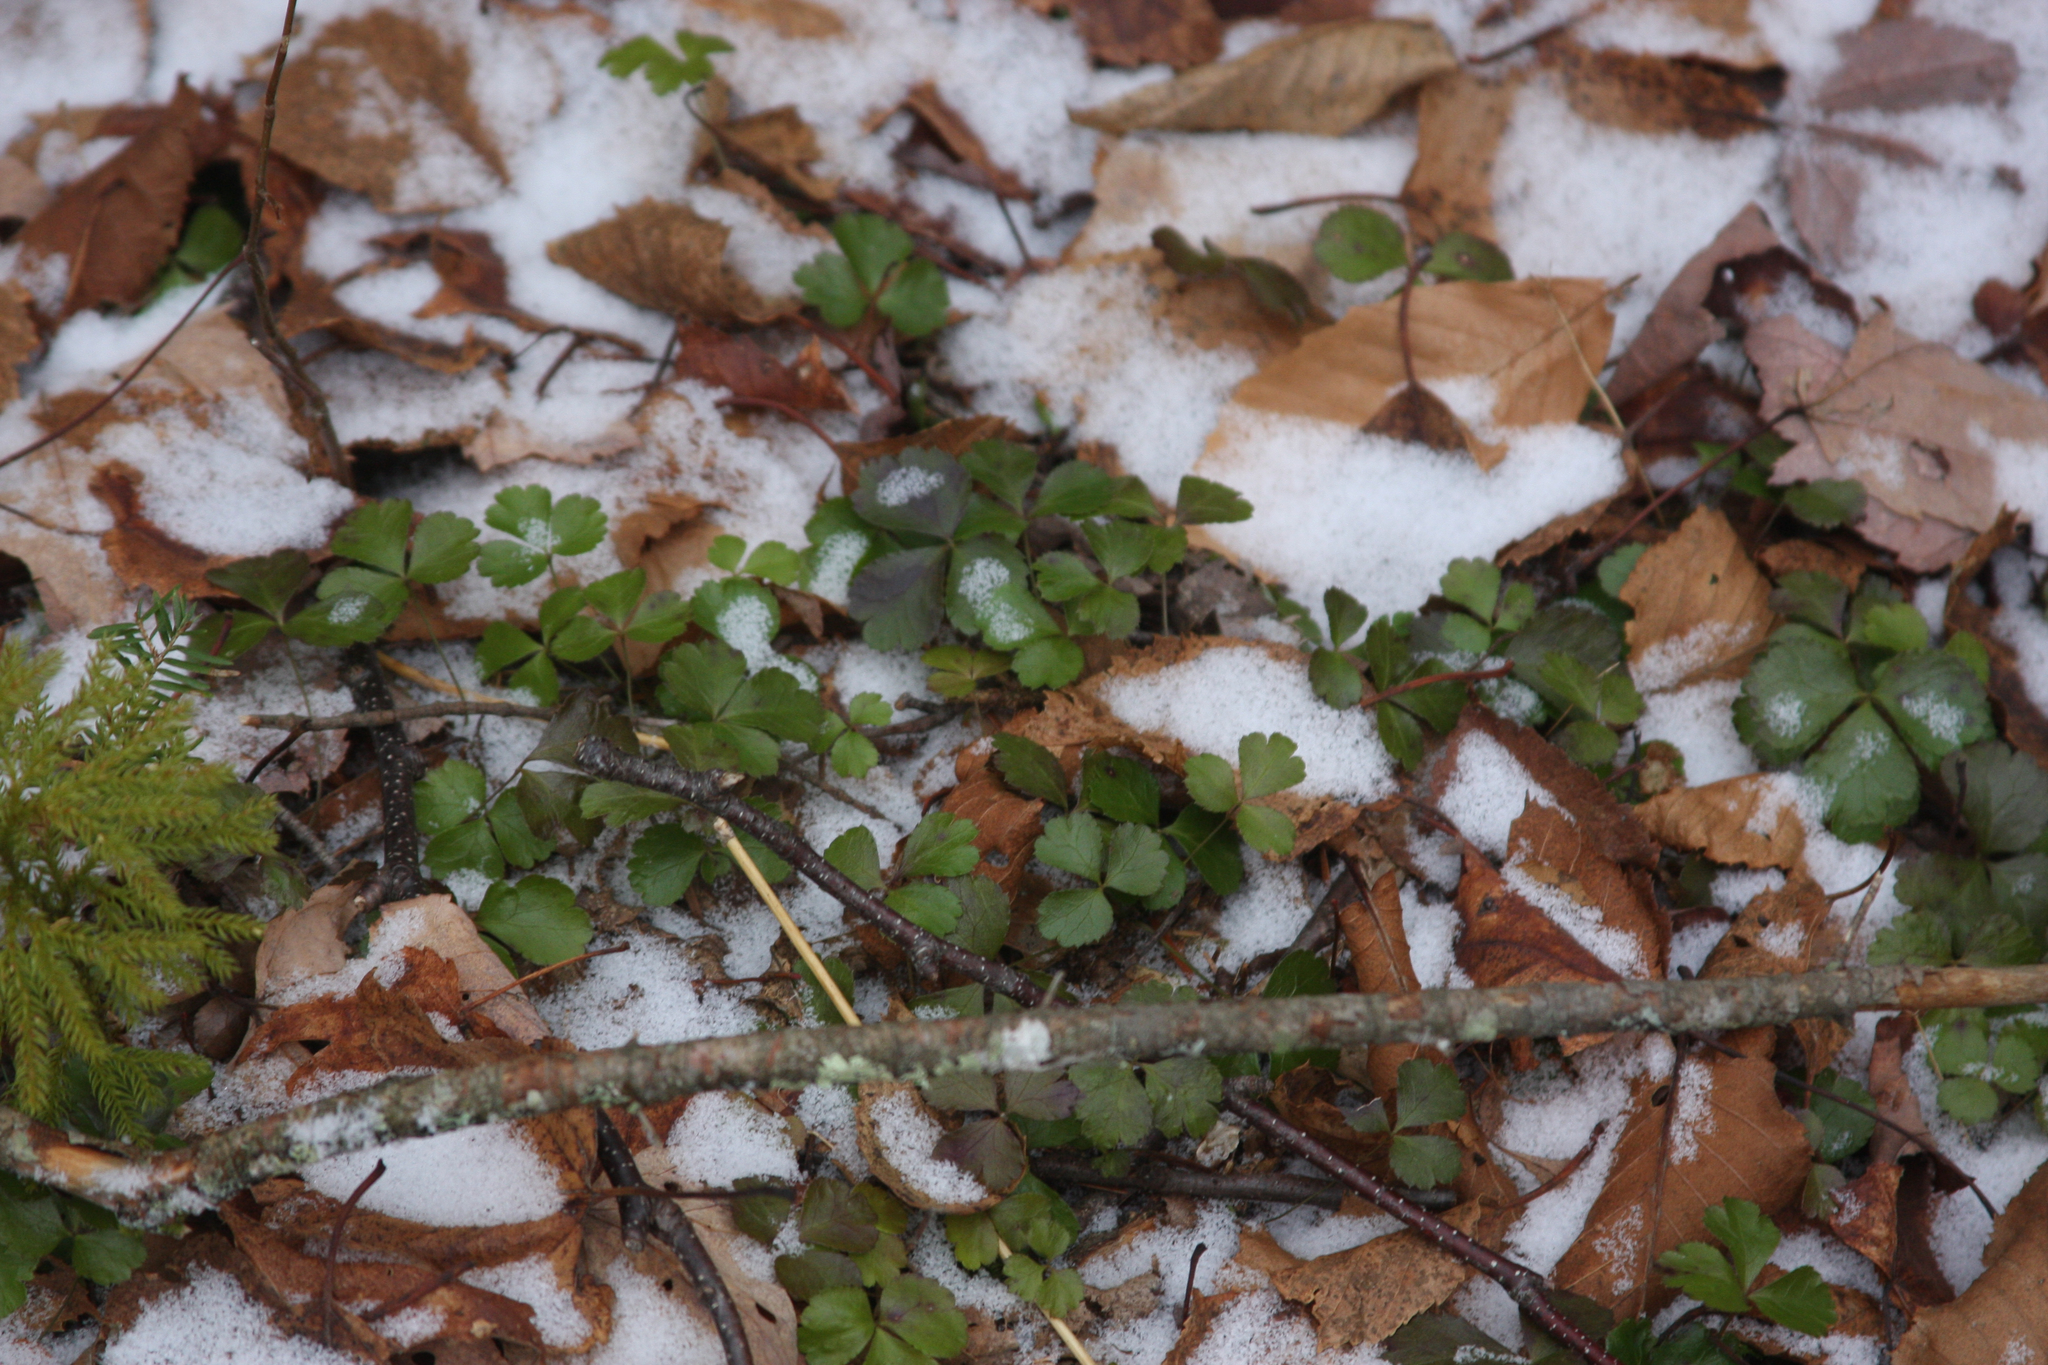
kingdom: Plantae
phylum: Tracheophyta
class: Magnoliopsida
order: Ranunculales
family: Ranunculaceae
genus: Coptis
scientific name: Coptis trifolia
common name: Canker-root
